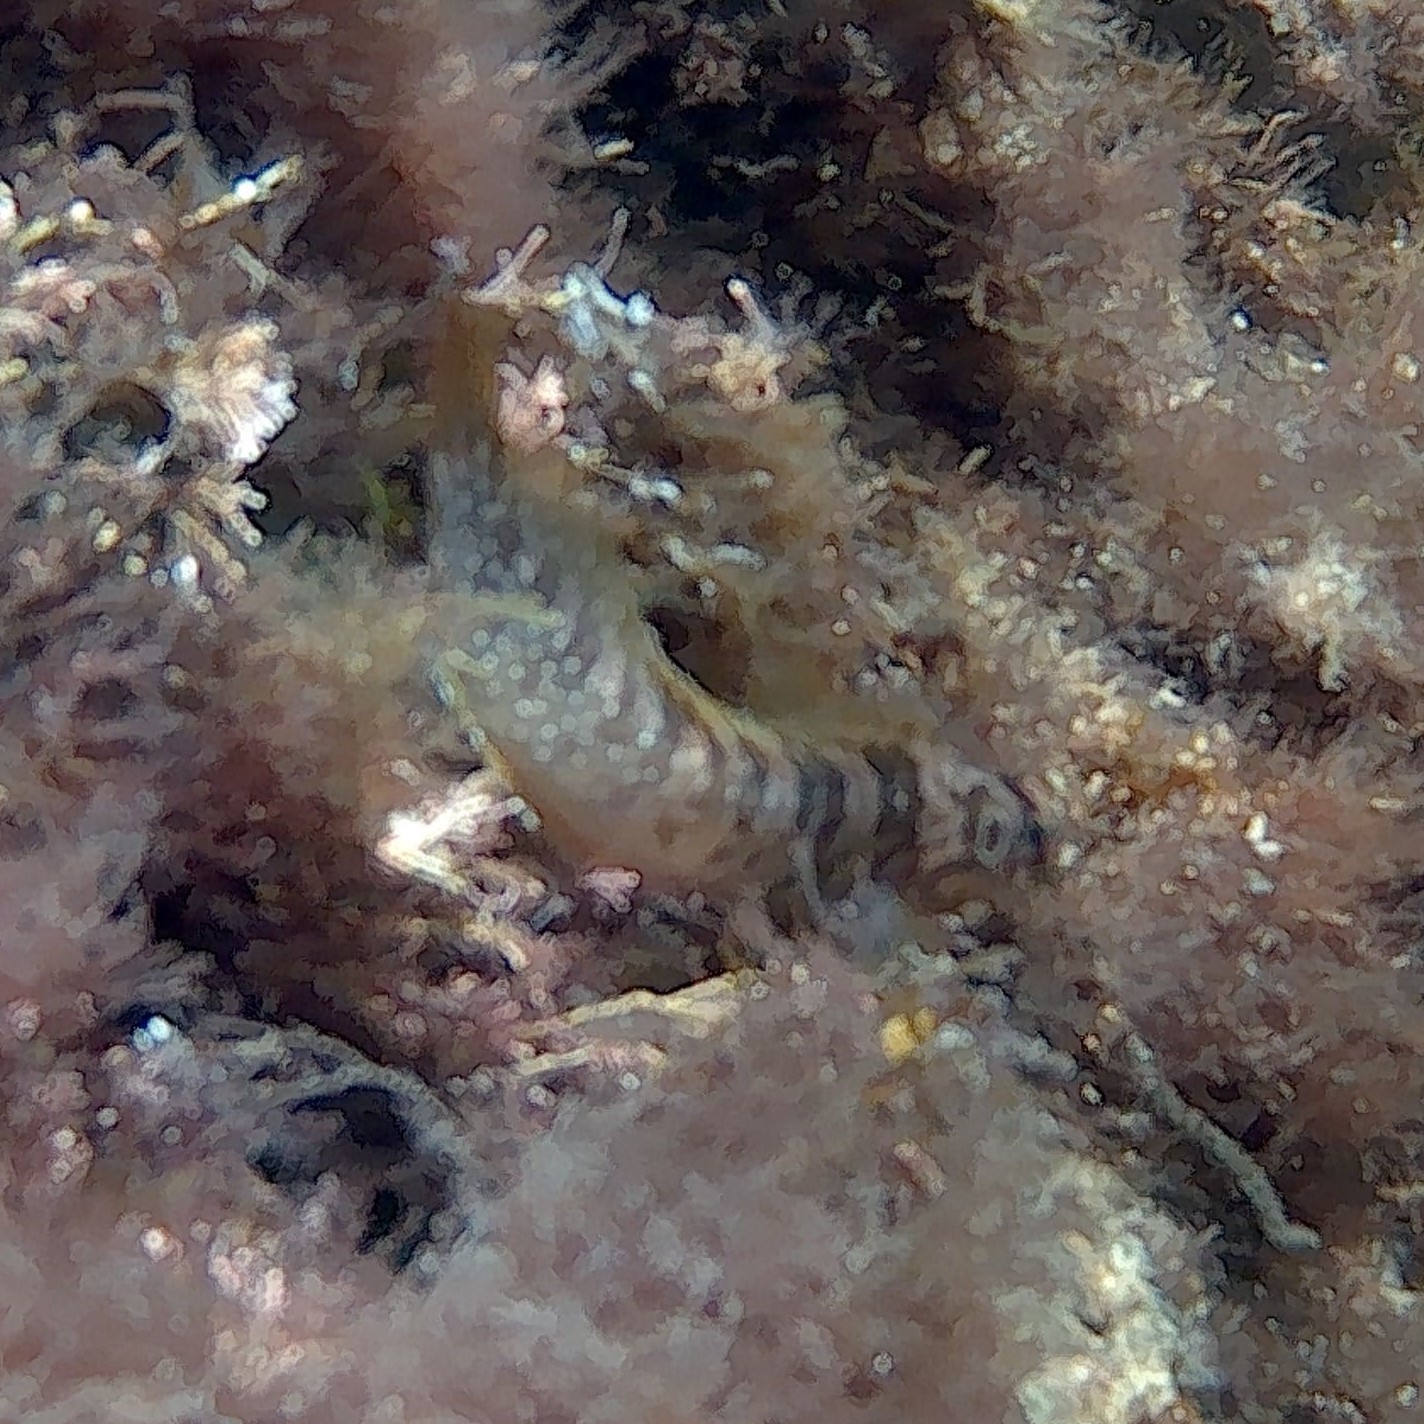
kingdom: Animalia
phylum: Chordata
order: Perciformes
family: Blenniidae
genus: Salaria
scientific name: Salaria pavo
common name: Peacock blenny
